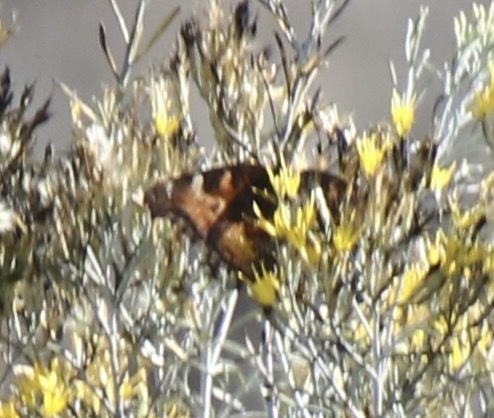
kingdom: Animalia
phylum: Arthropoda
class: Insecta
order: Lepidoptera
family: Nymphalidae
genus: Nymphalis
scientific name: Nymphalis californica
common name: California tortoiseshell
